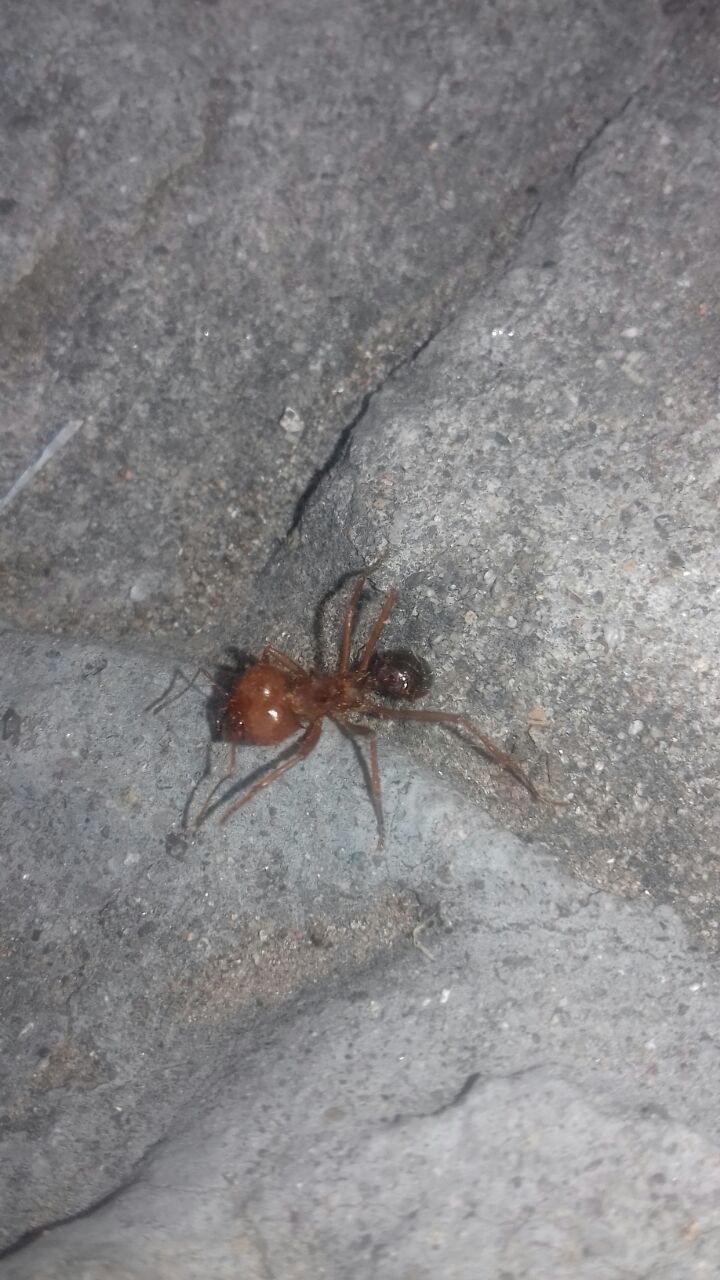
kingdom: Animalia
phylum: Arthropoda
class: Insecta
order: Hymenoptera
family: Formicidae
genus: Atta
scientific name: Atta mexicana
